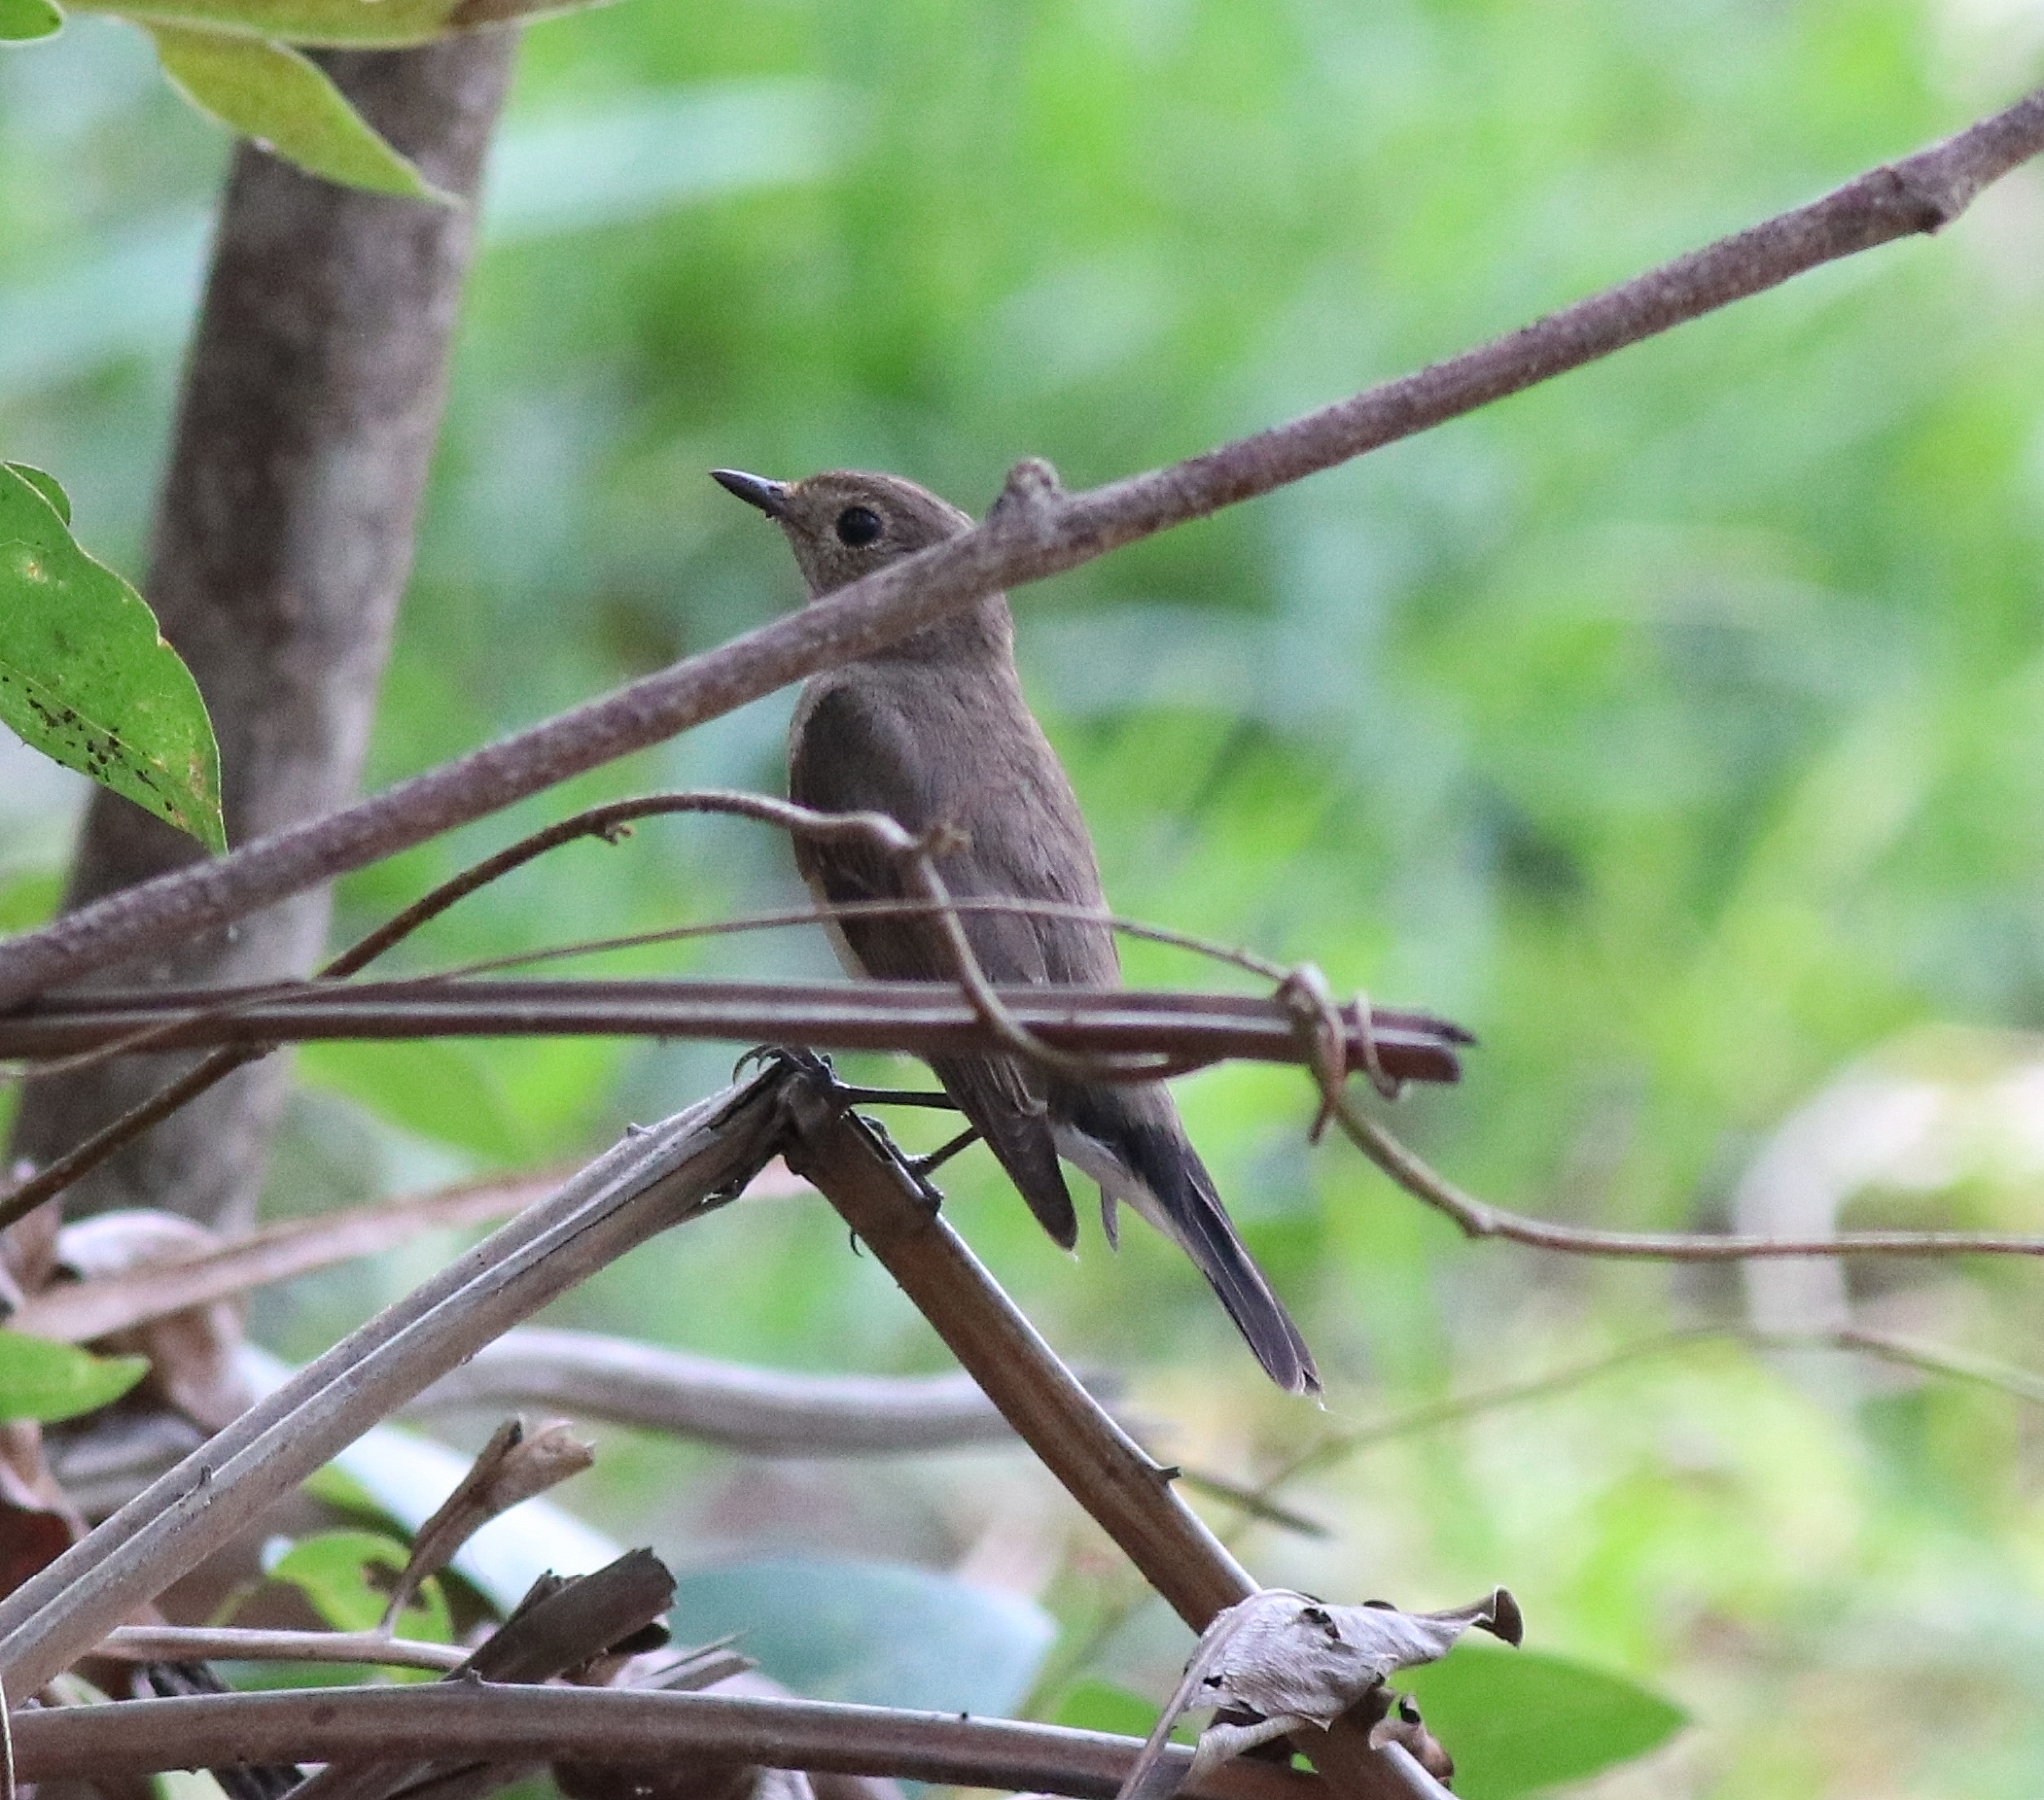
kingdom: Animalia
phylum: Chordata
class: Aves
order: Passeriformes
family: Muscicapidae
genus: Ficedula
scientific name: Ficedula albicilla
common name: Taiga flycatcher
